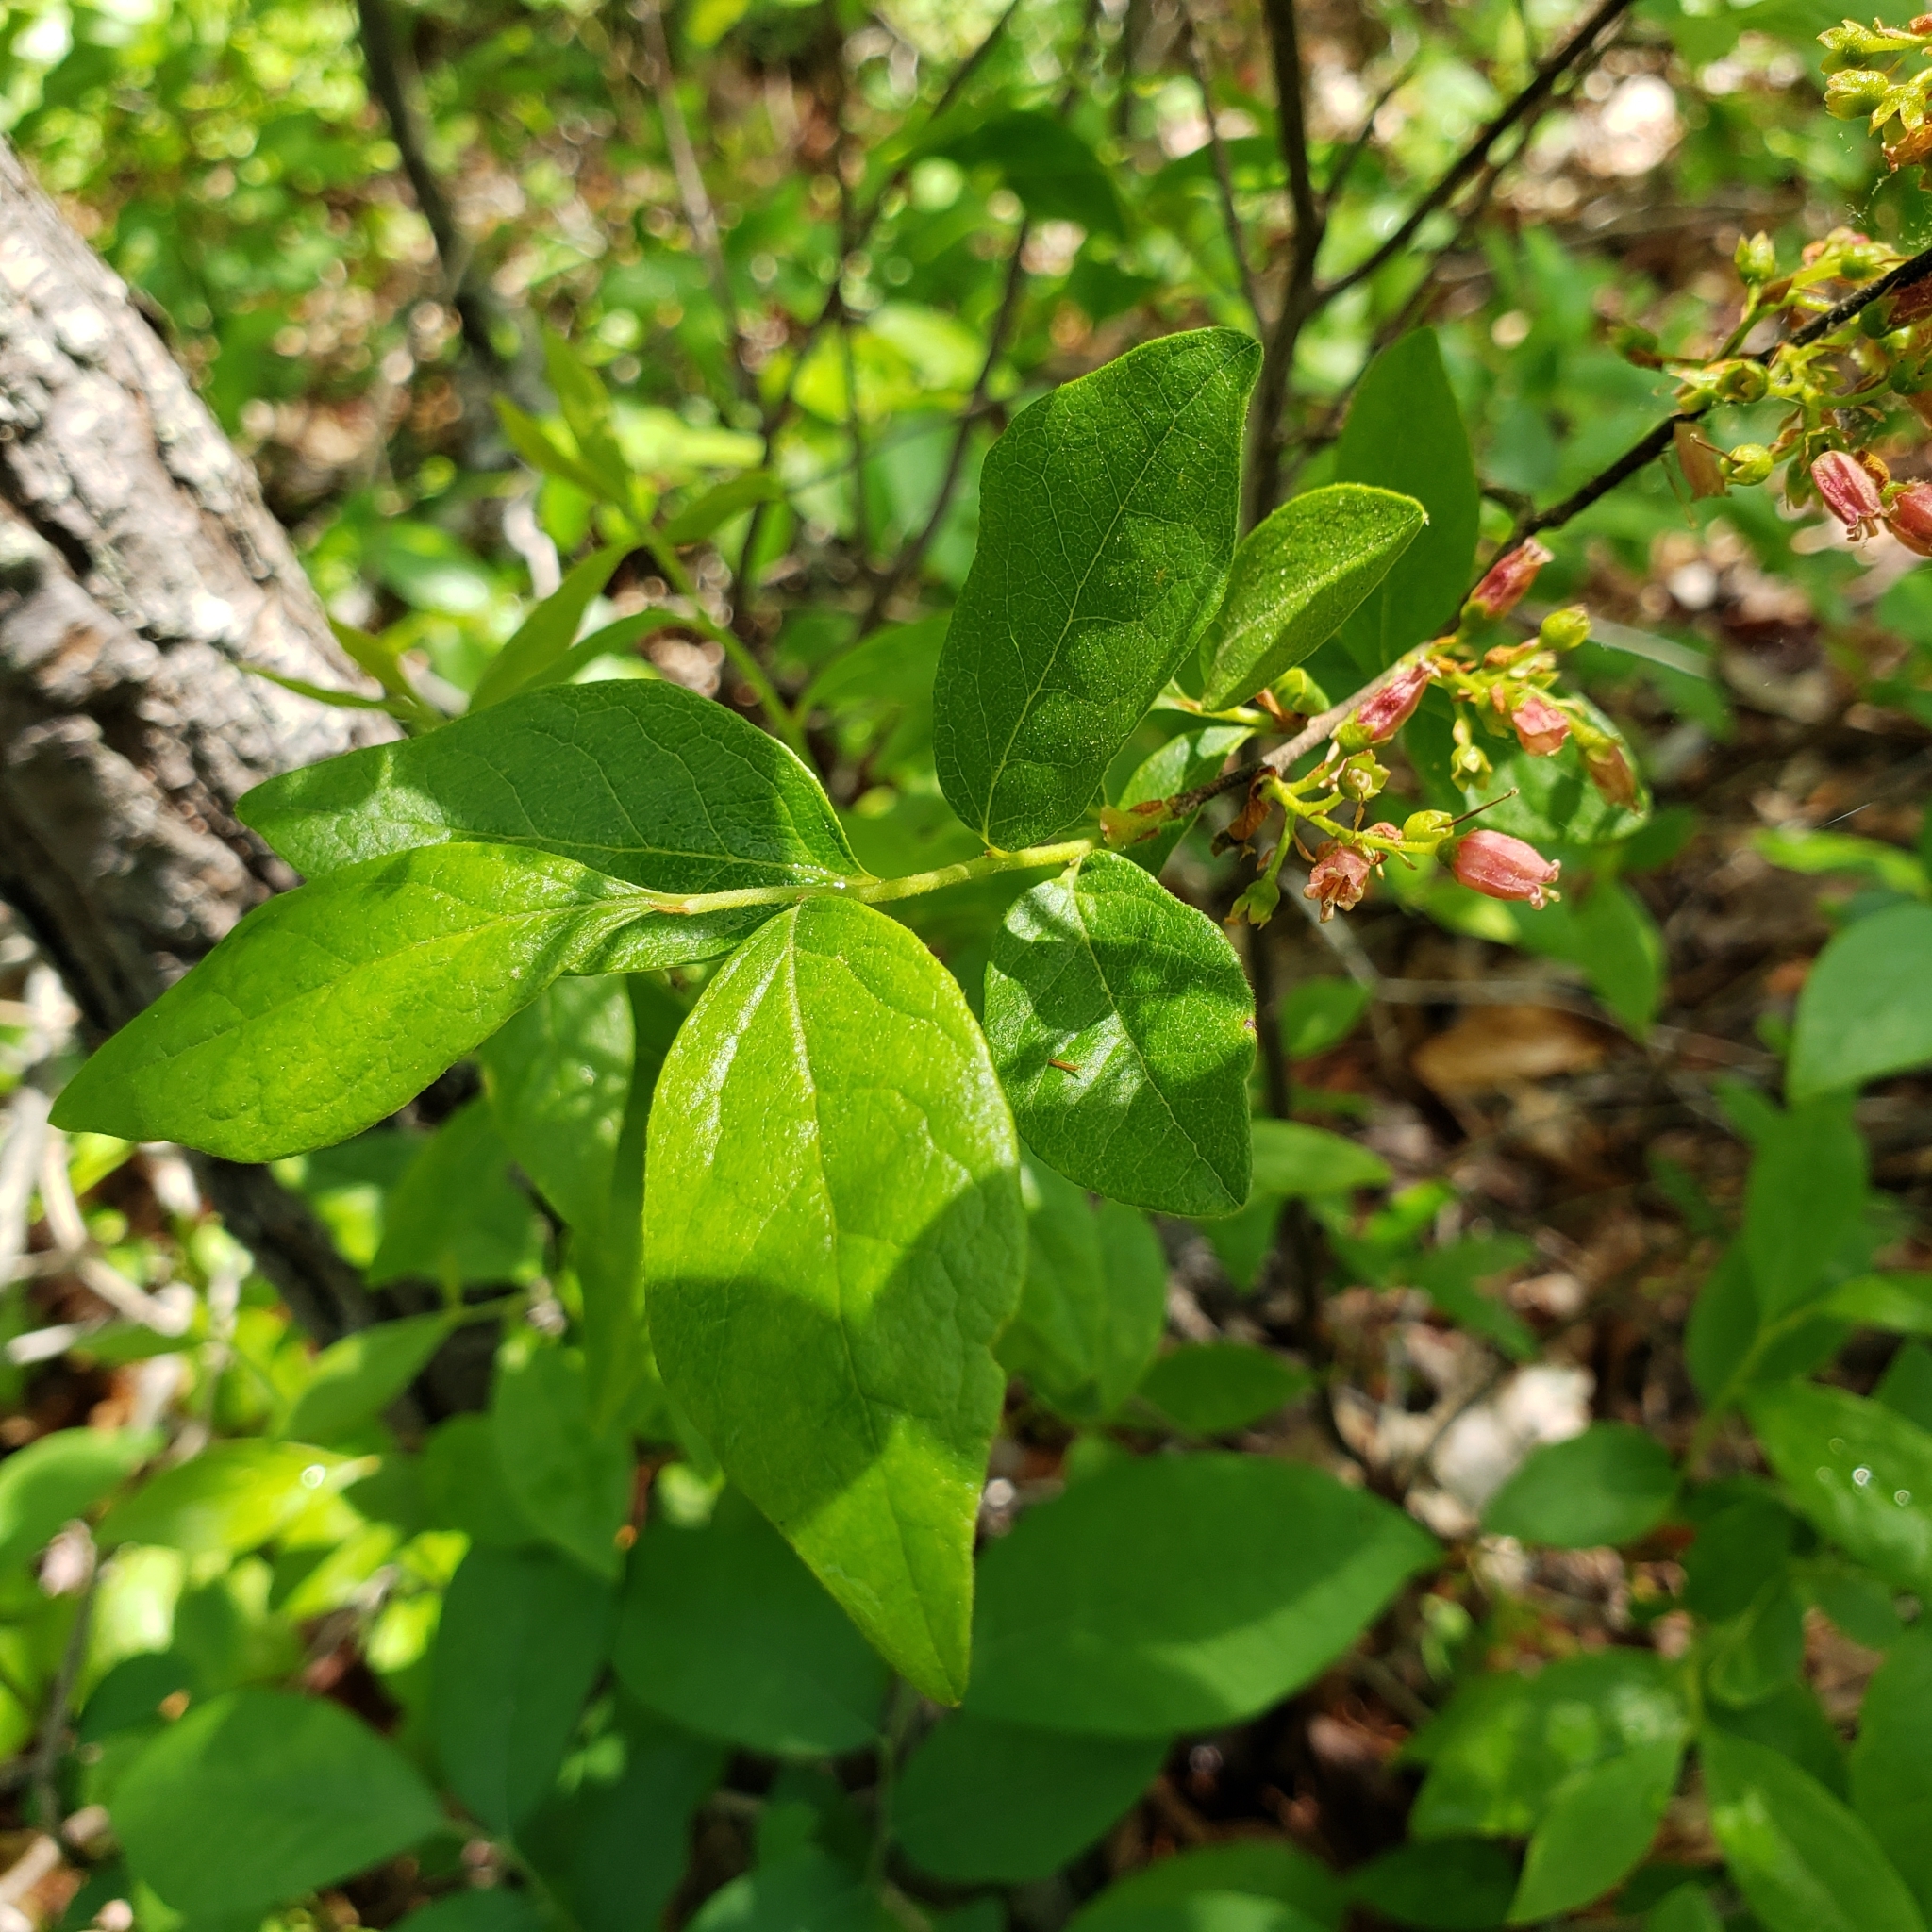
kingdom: Plantae
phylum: Tracheophyta
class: Magnoliopsida
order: Ericales
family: Ericaceae
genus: Gaylussacia
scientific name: Gaylussacia baccata
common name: Black huckleberry
